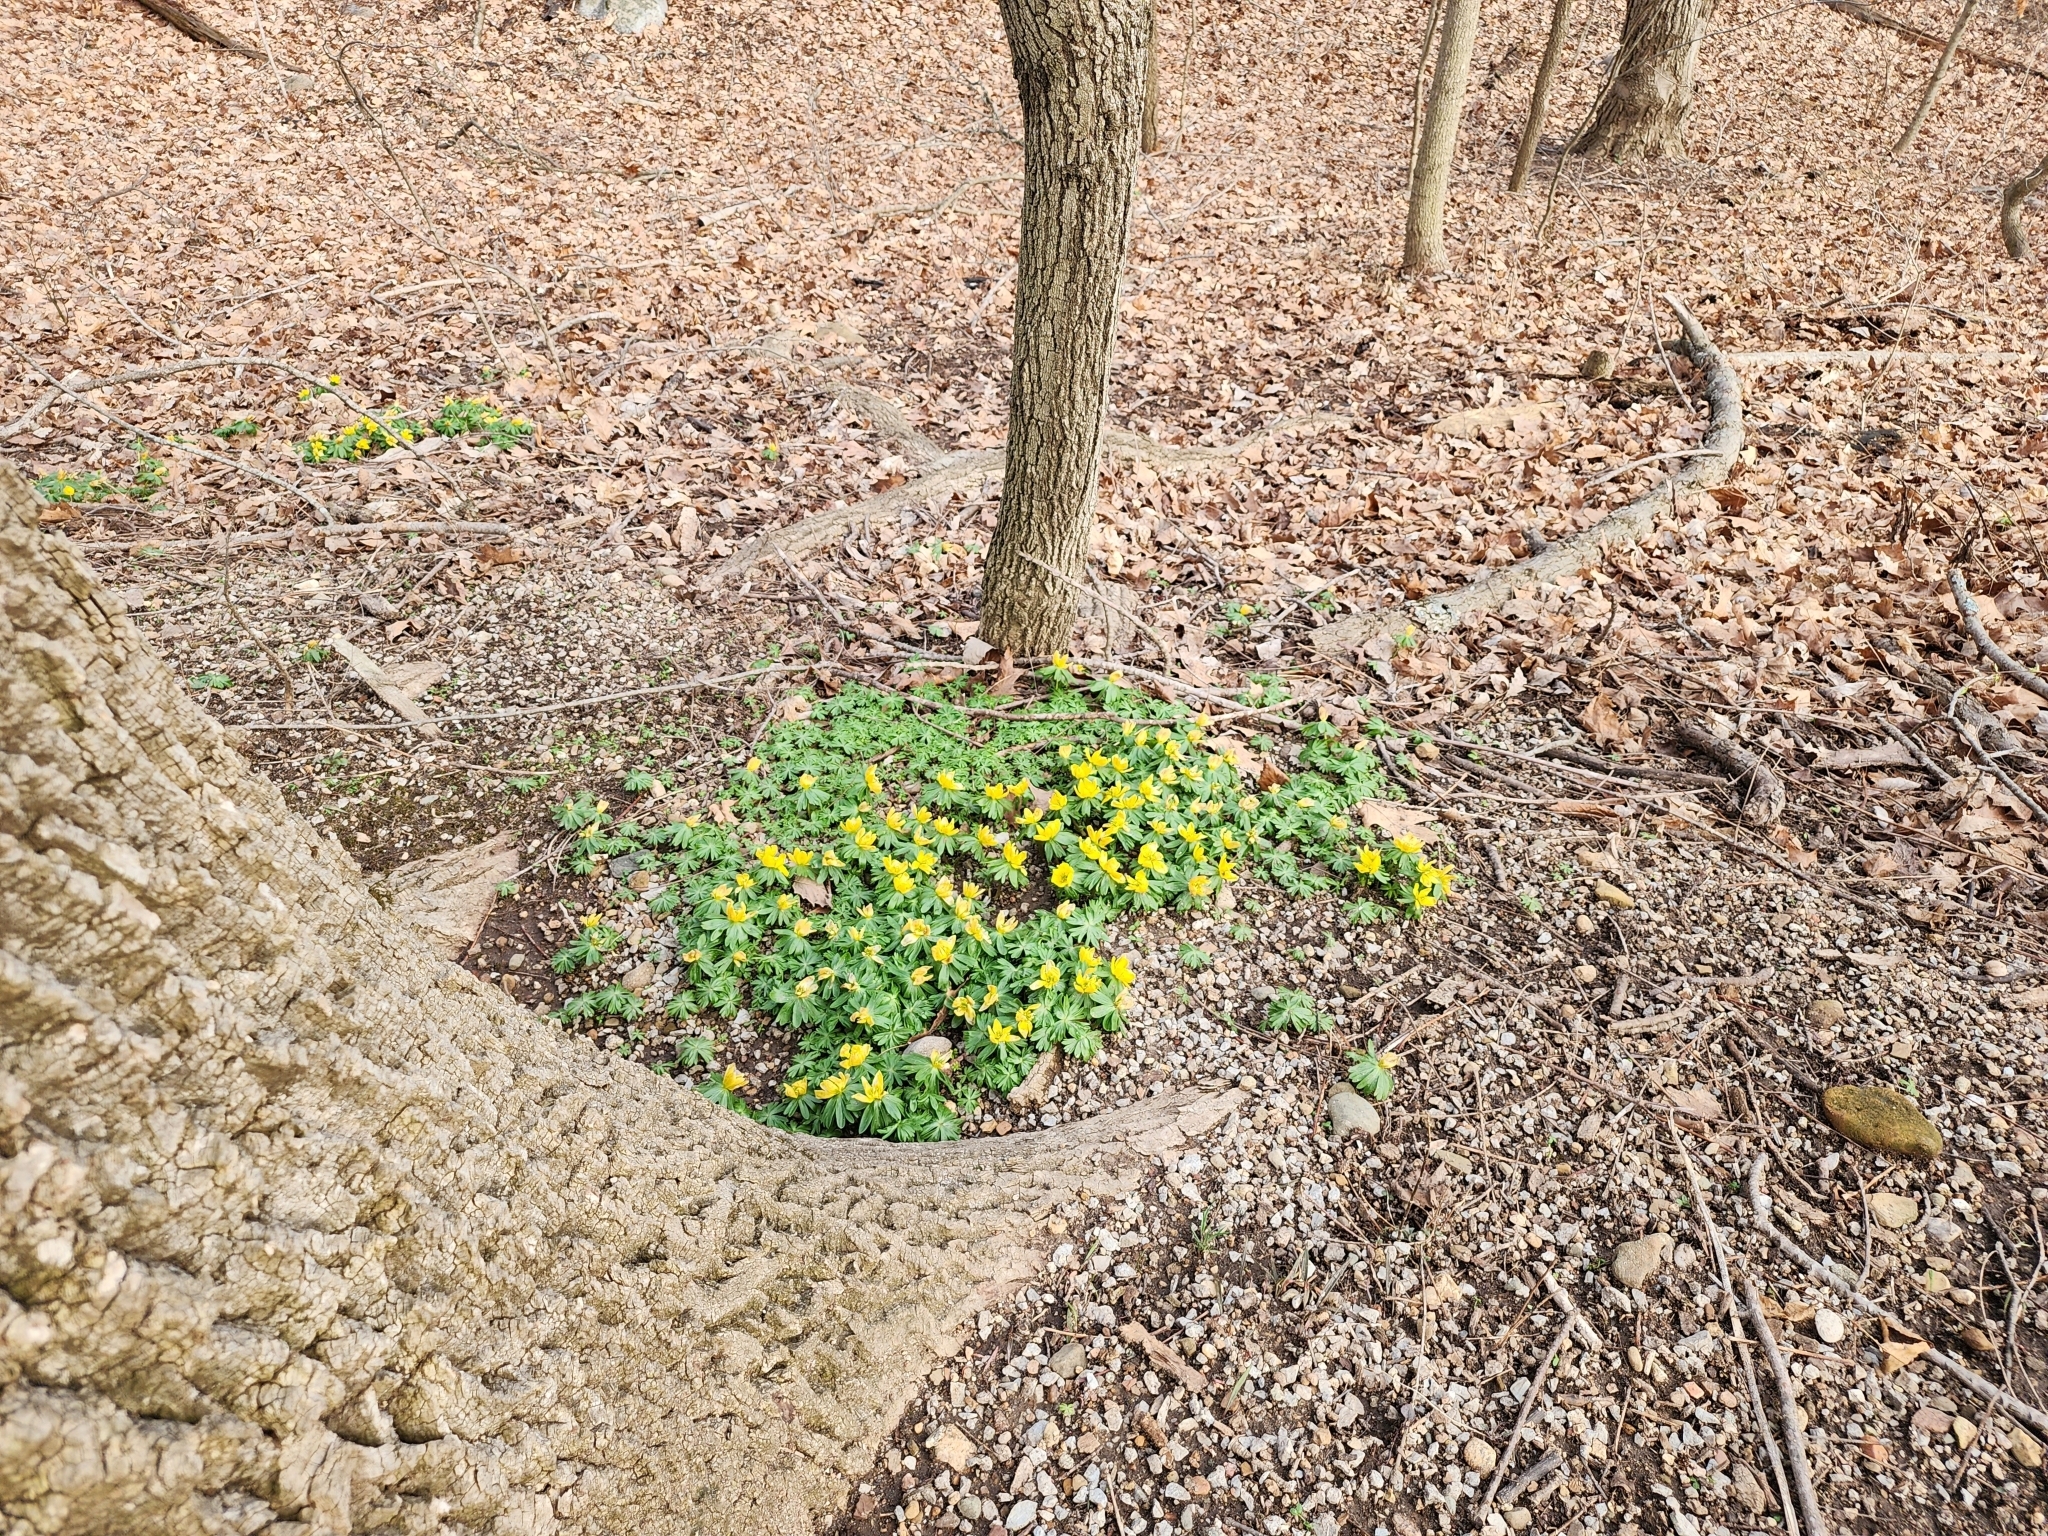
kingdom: Plantae
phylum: Tracheophyta
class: Magnoliopsida
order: Ranunculales
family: Ranunculaceae
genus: Eranthis
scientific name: Eranthis hyemalis
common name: Winter aconite
